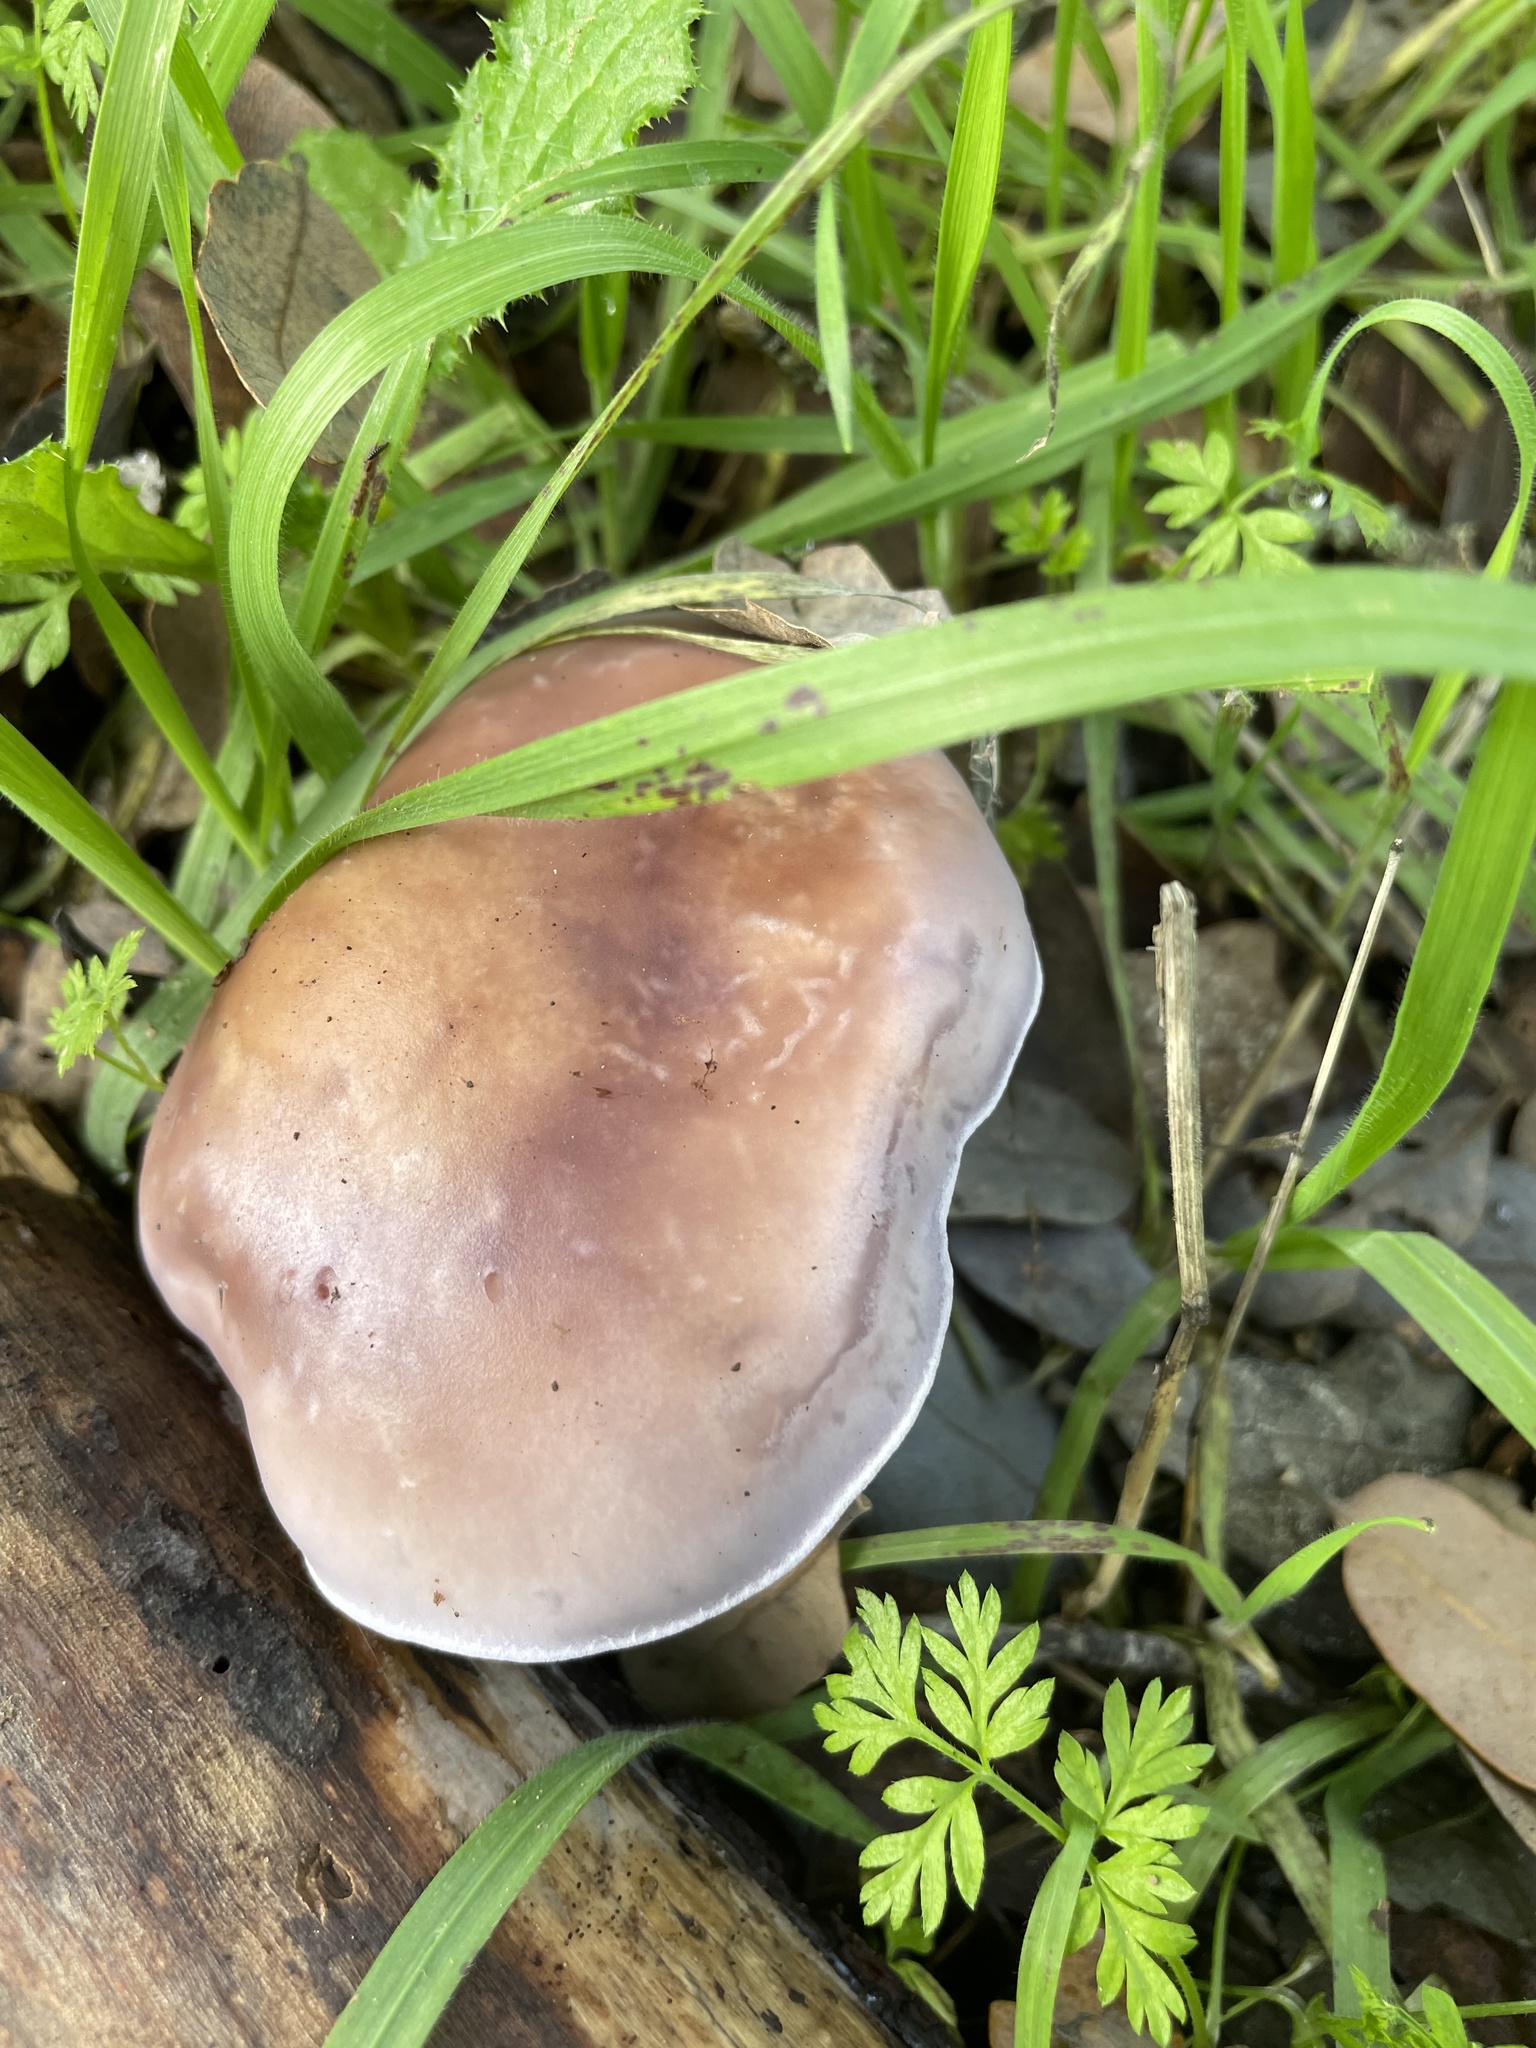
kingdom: Fungi
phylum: Basidiomycota
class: Agaricomycetes
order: Agaricales
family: Tricholomataceae
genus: Collybia
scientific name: Collybia
